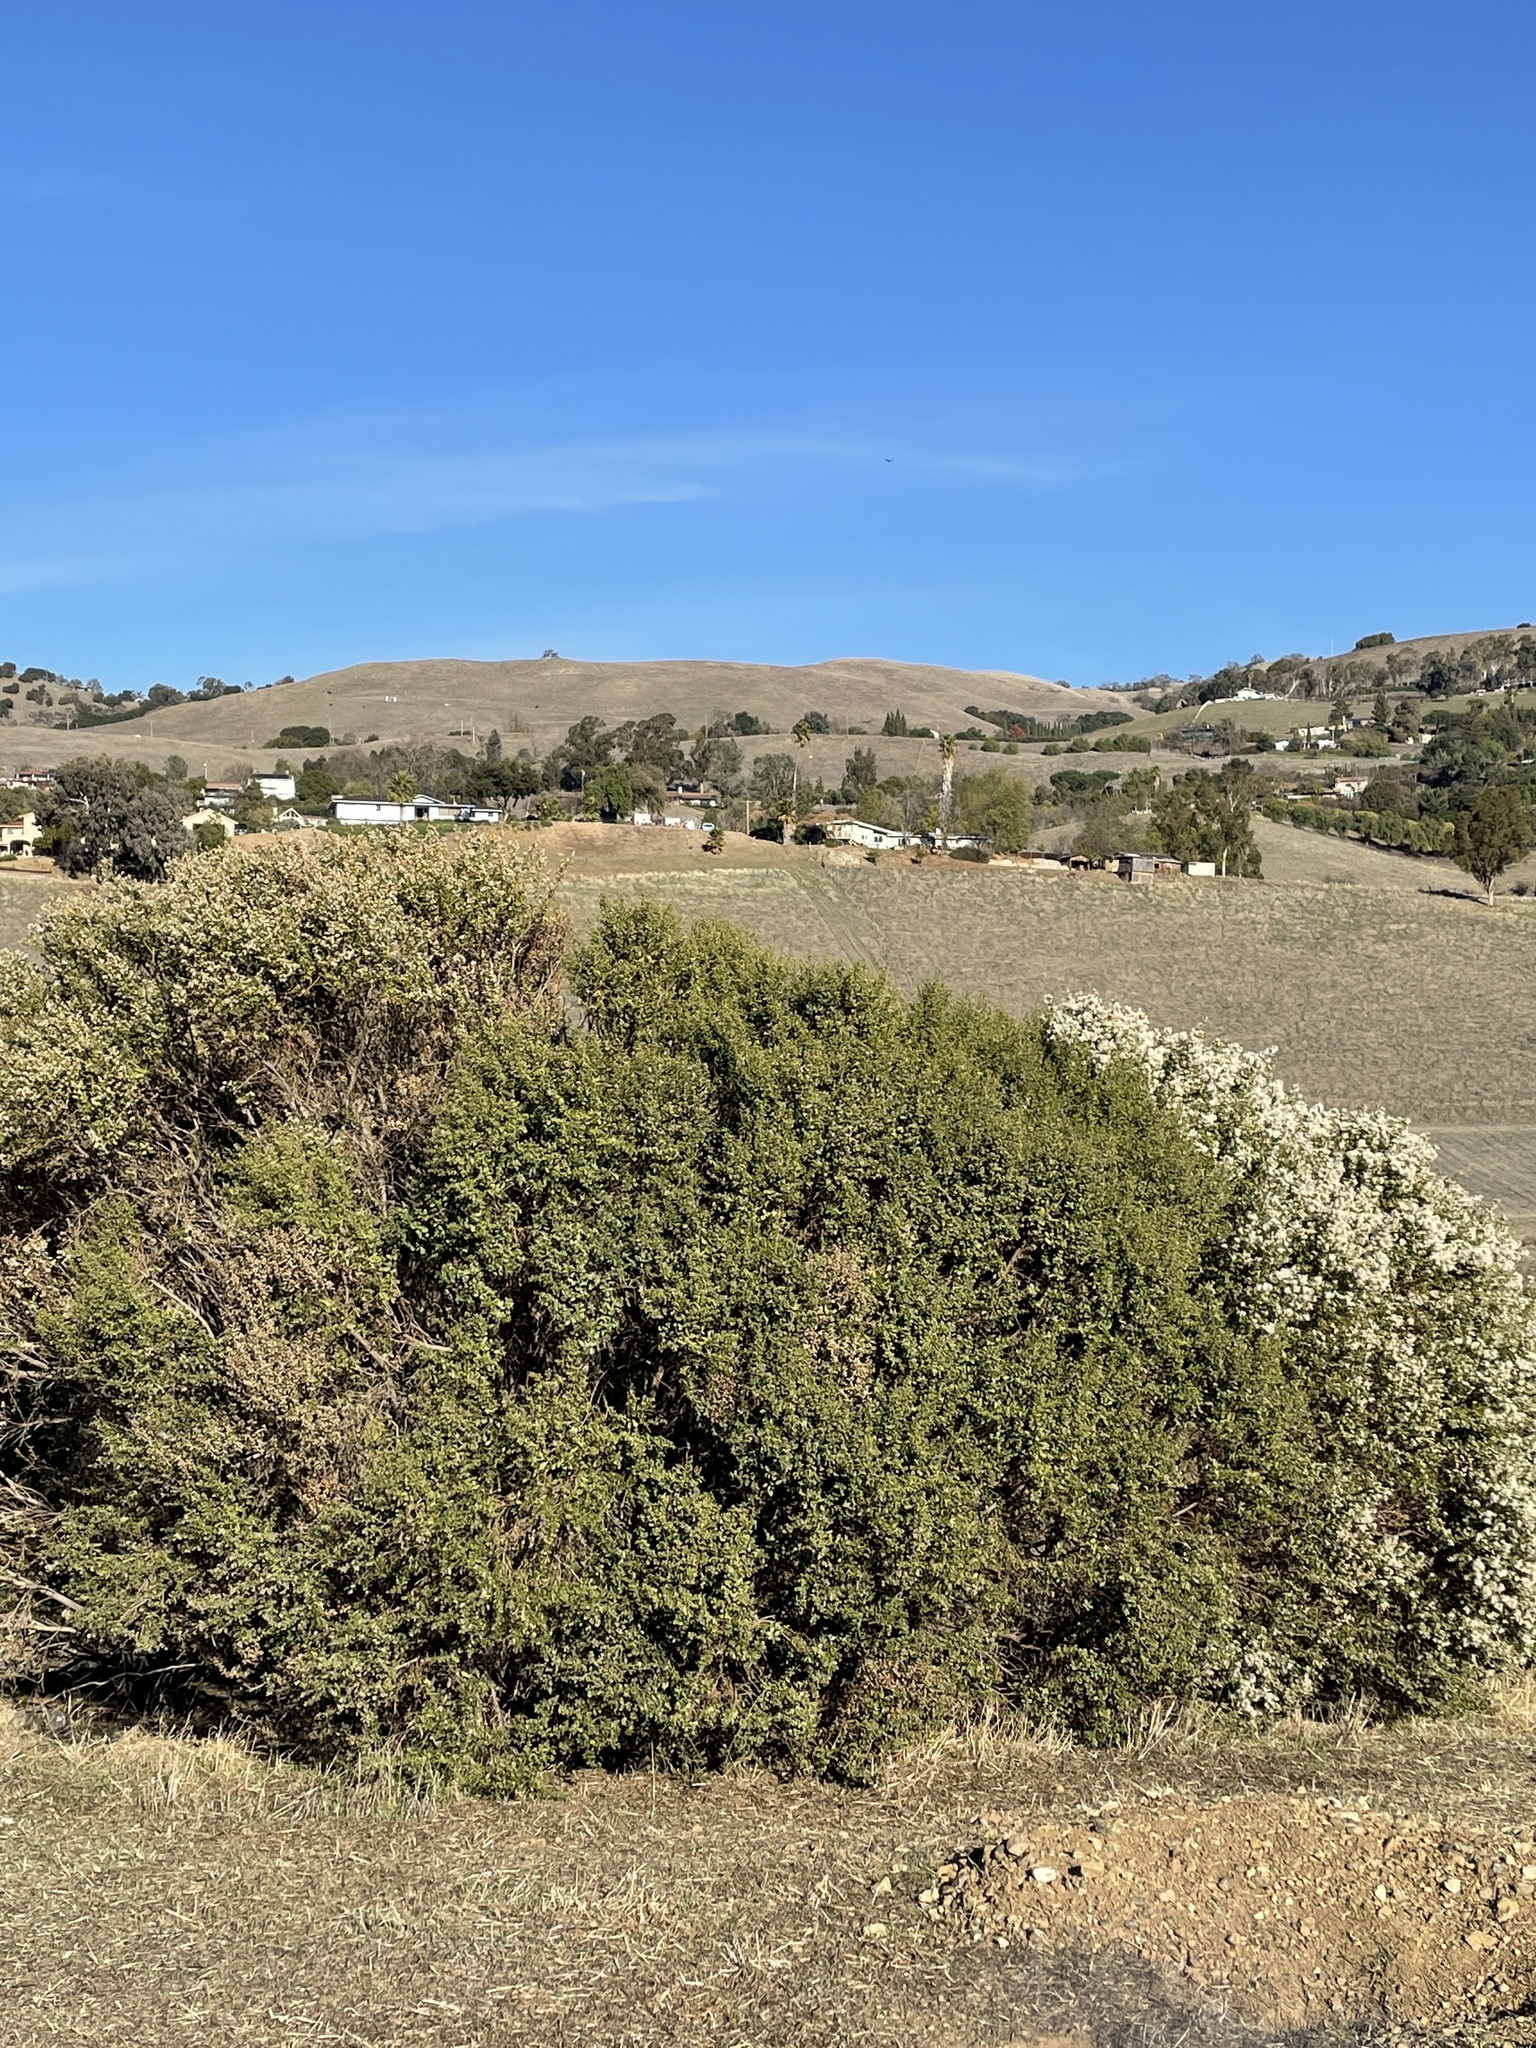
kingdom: Plantae
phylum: Tracheophyta
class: Magnoliopsida
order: Asterales
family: Asteraceae
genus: Baccharis
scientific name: Baccharis pilularis
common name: Coyotebrush
